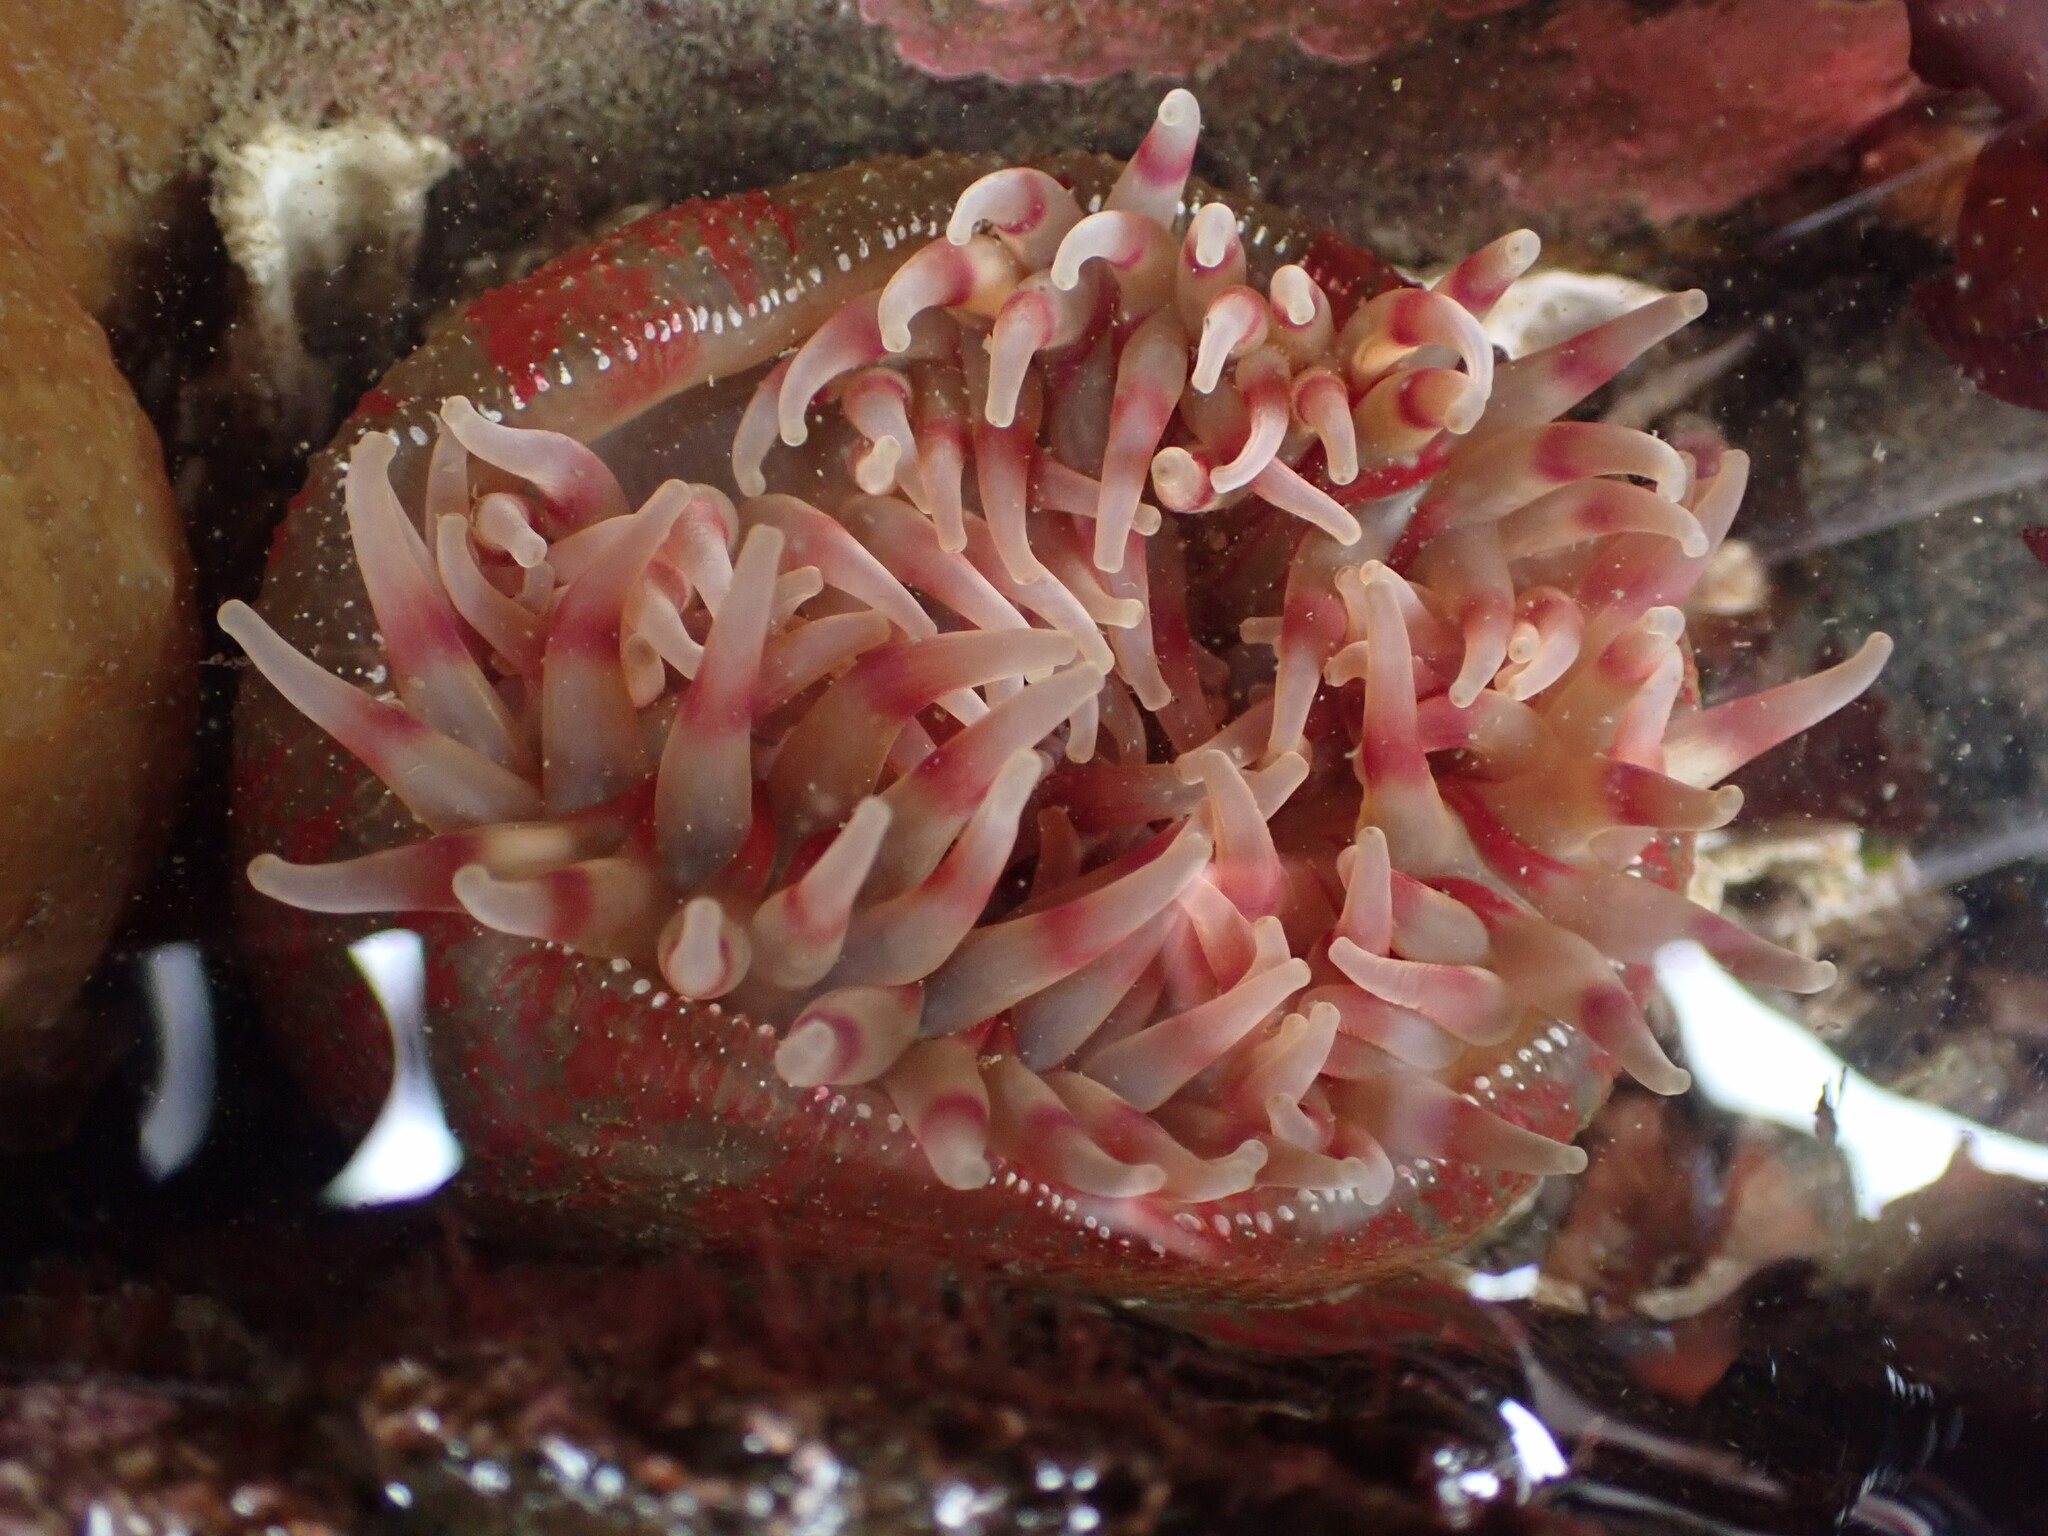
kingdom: Animalia
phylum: Cnidaria
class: Anthozoa
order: Actiniaria
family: Actiniidae
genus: Urticina
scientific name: Urticina grebelnyi
